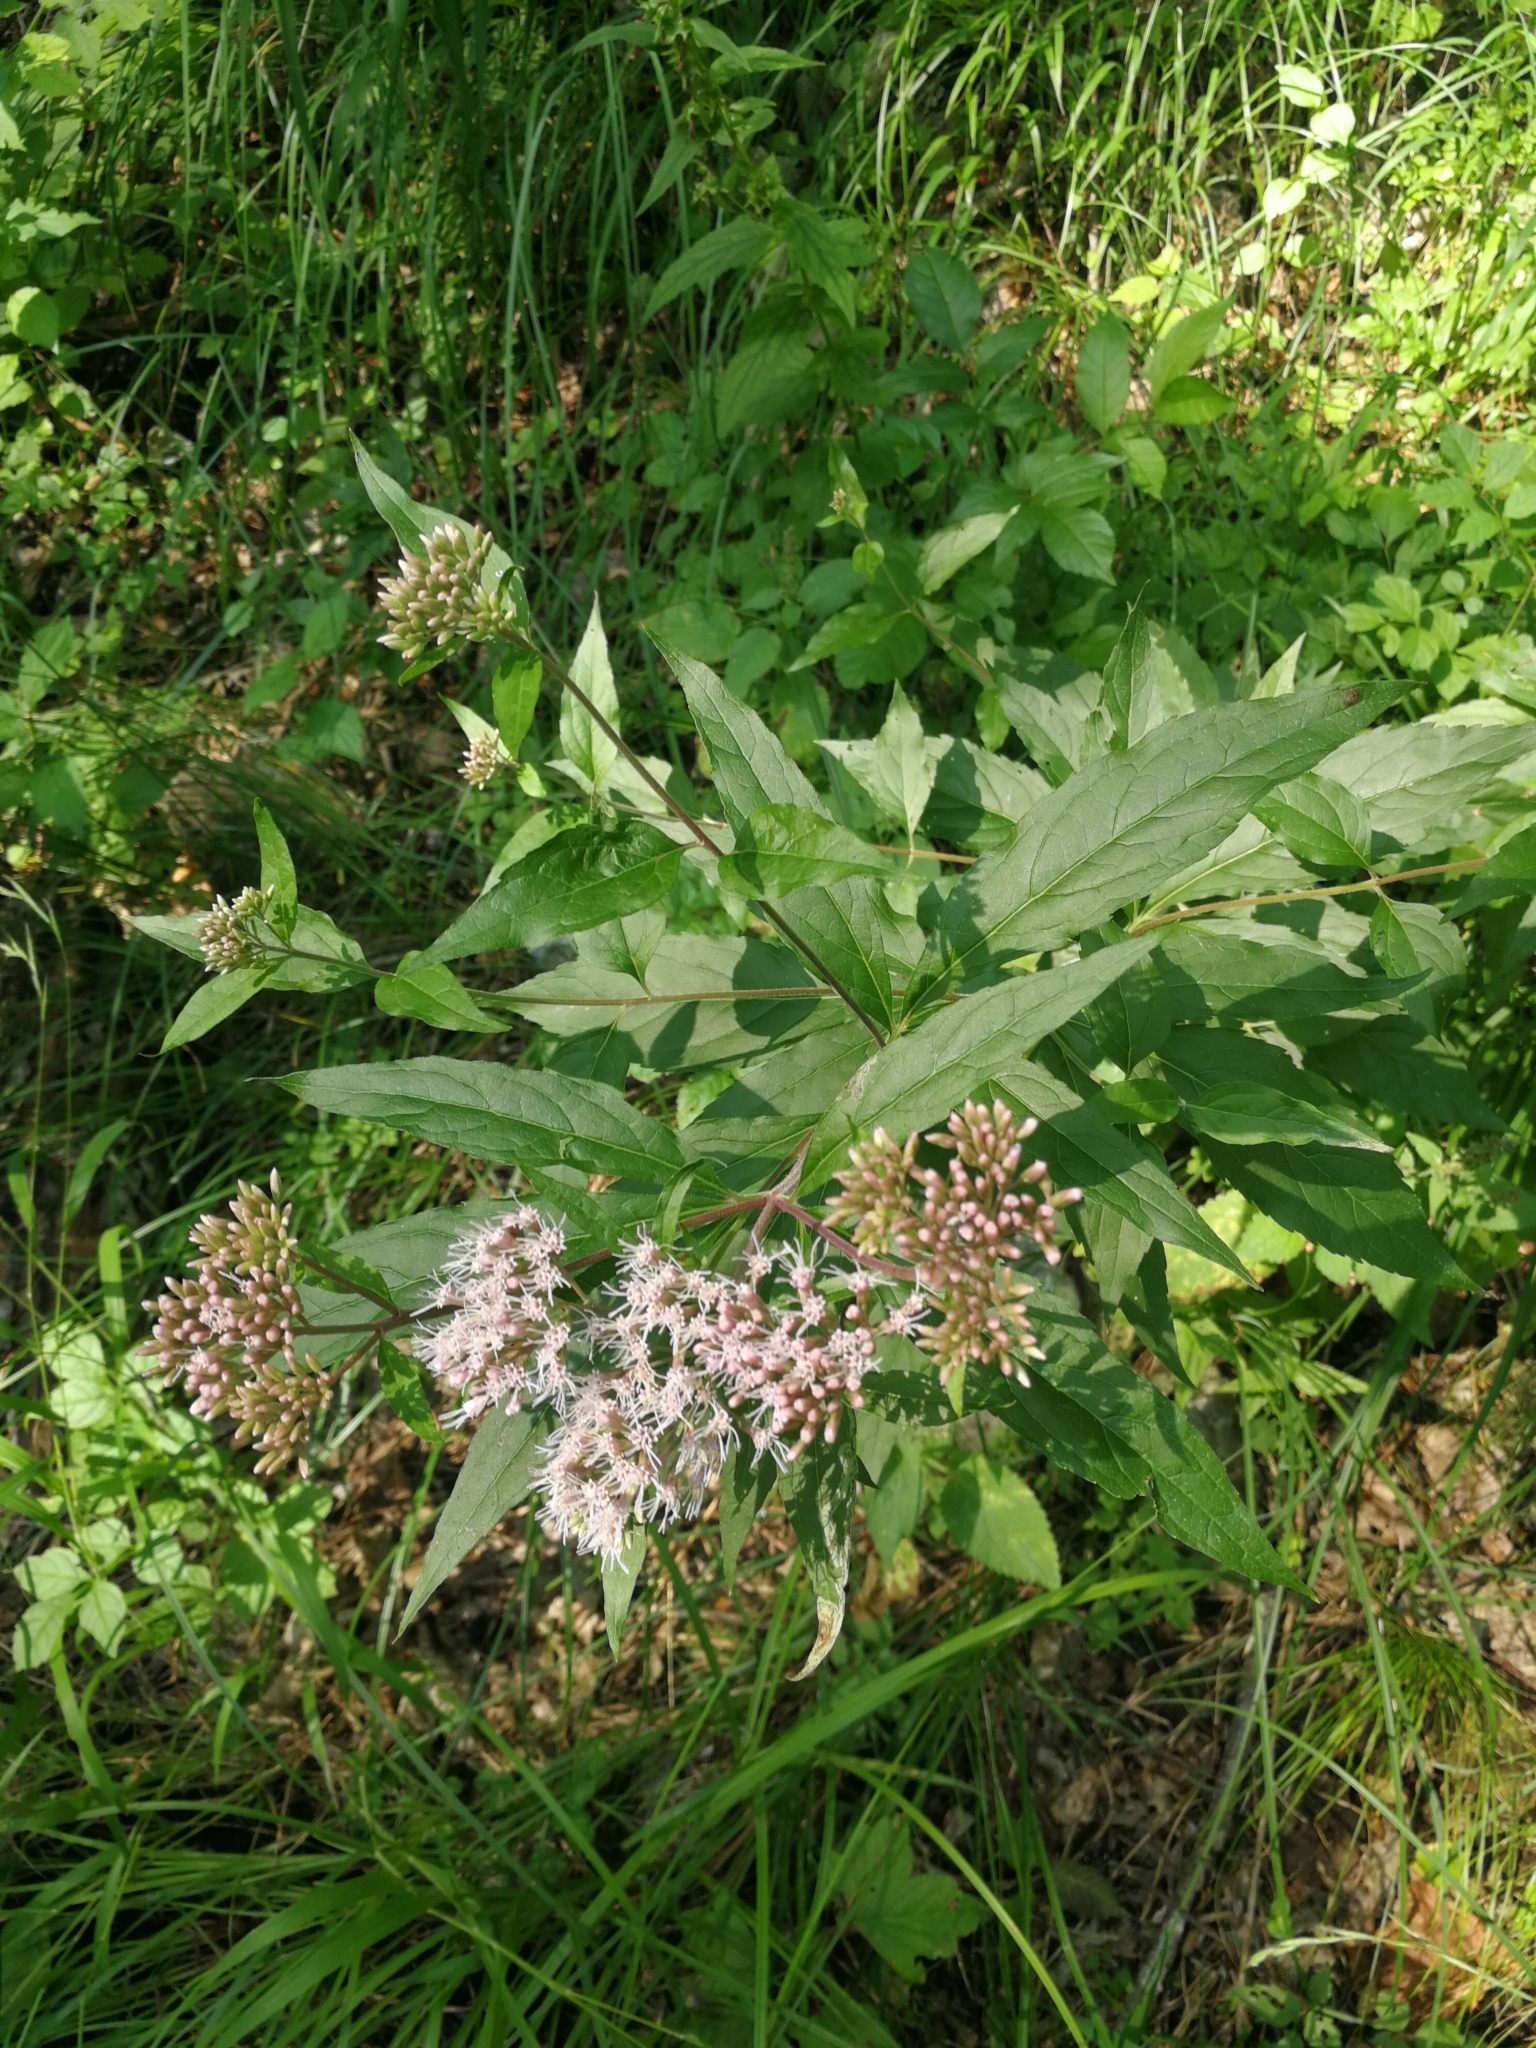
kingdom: Plantae
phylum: Tracheophyta
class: Magnoliopsida
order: Asterales
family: Asteraceae
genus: Eupatorium
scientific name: Eupatorium cannabinum
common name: Hemp-agrimony
